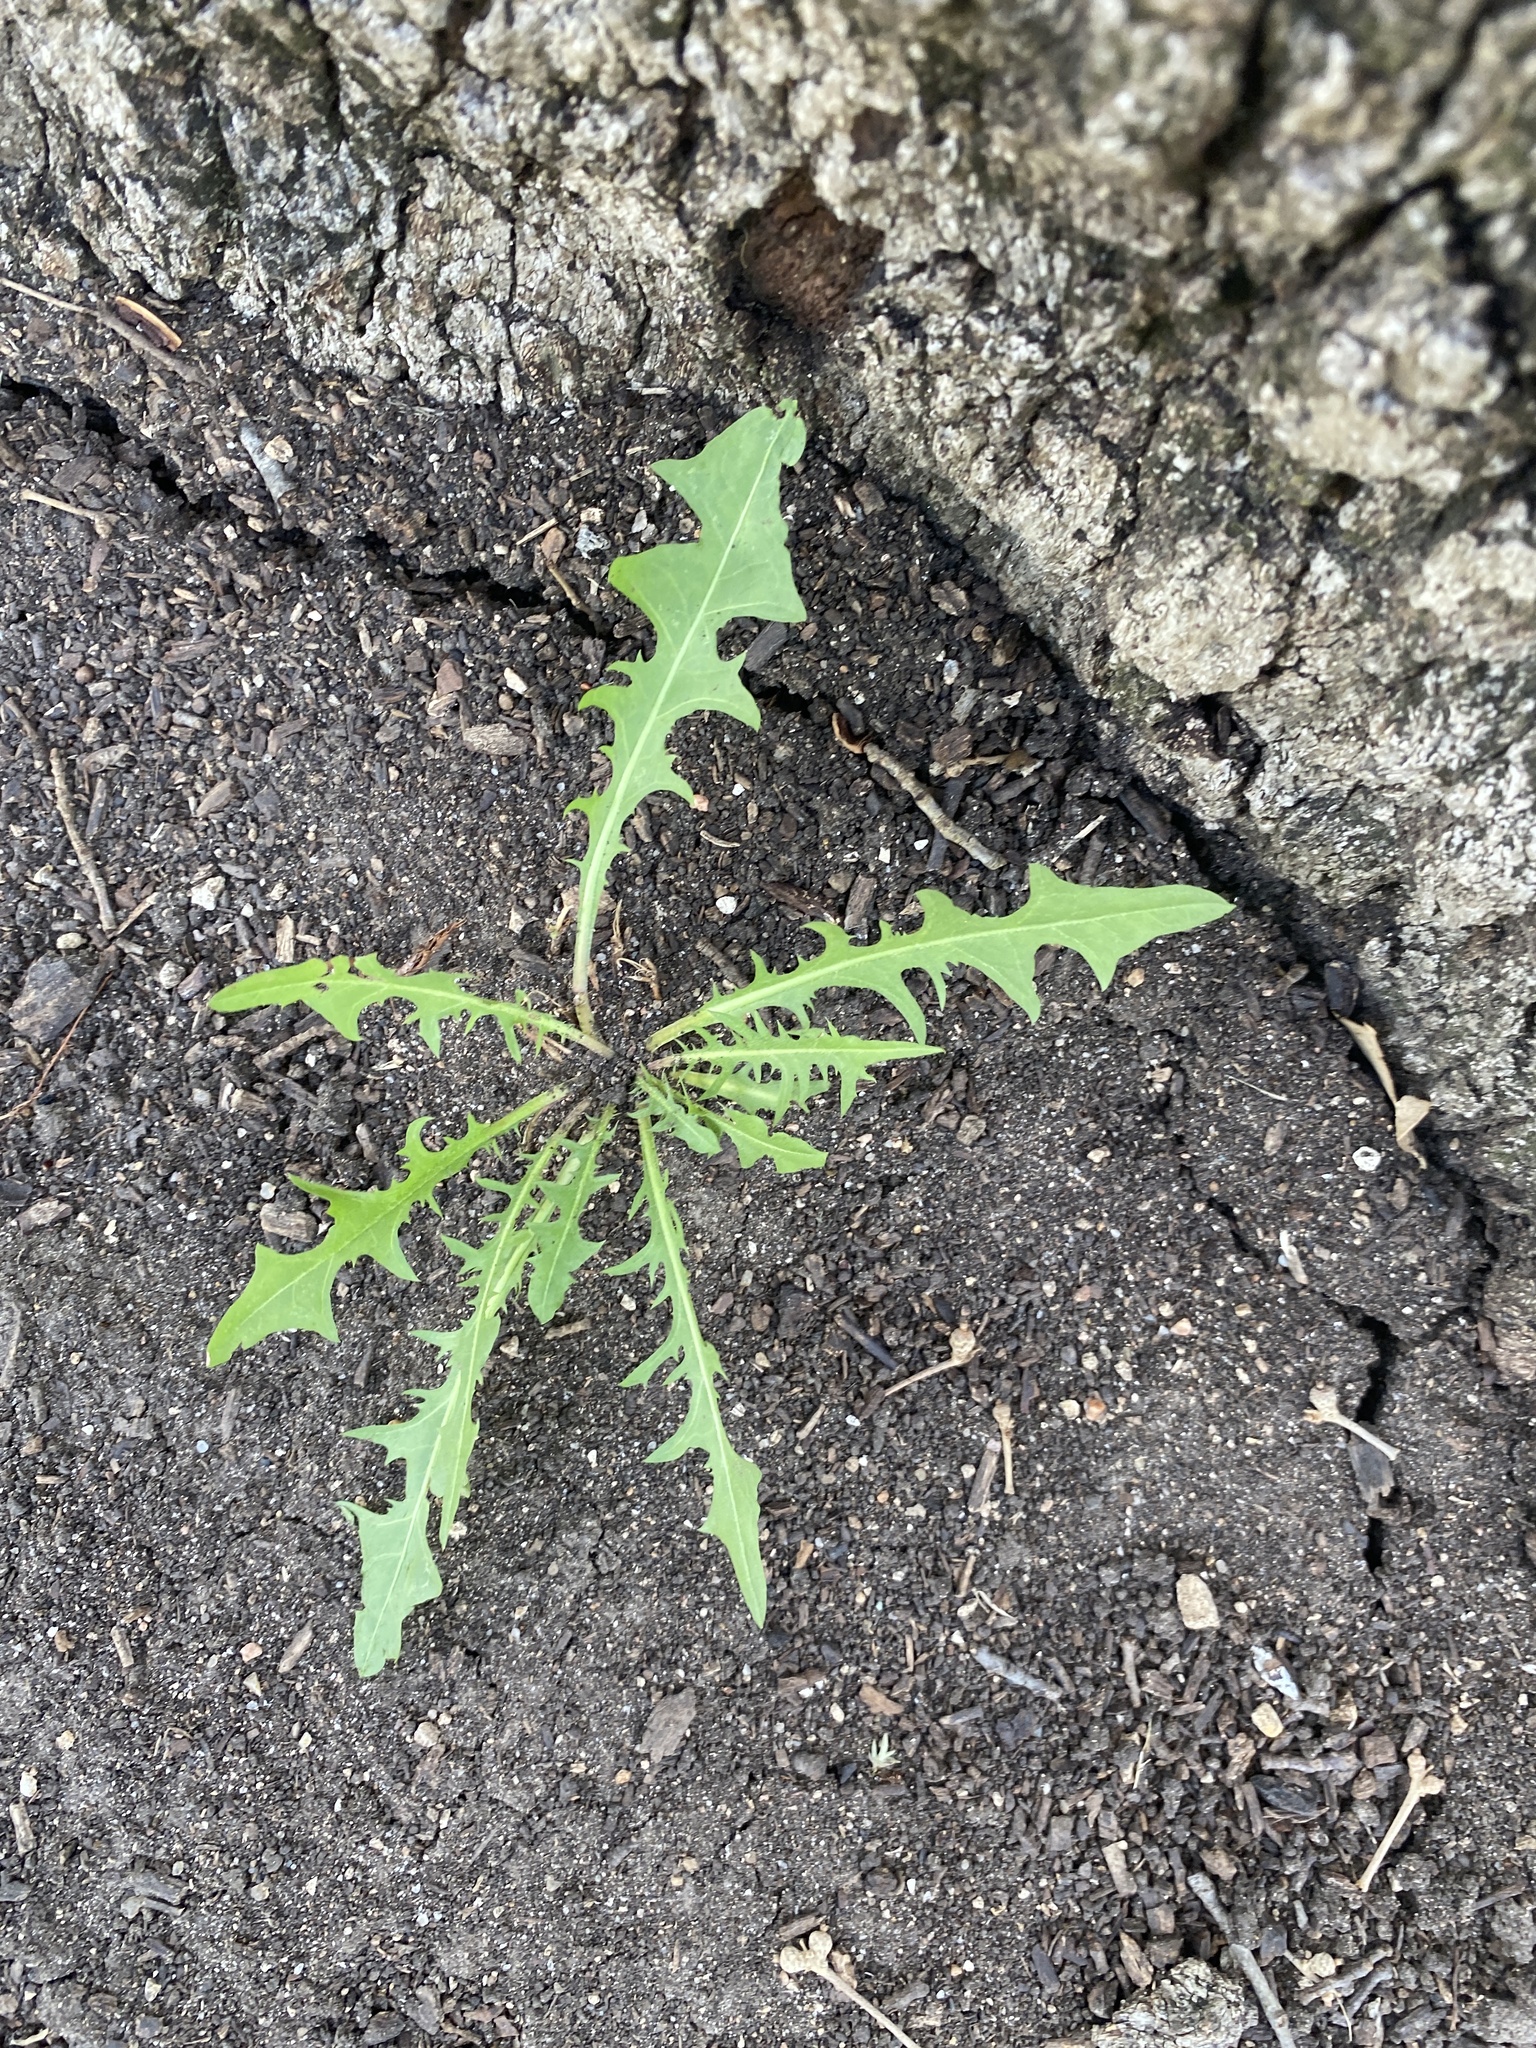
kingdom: Plantae
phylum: Tracheophyta
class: Magnoliopsida
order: Asterales
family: Asteraceae
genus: Taraxacum
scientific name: Taraxacum
